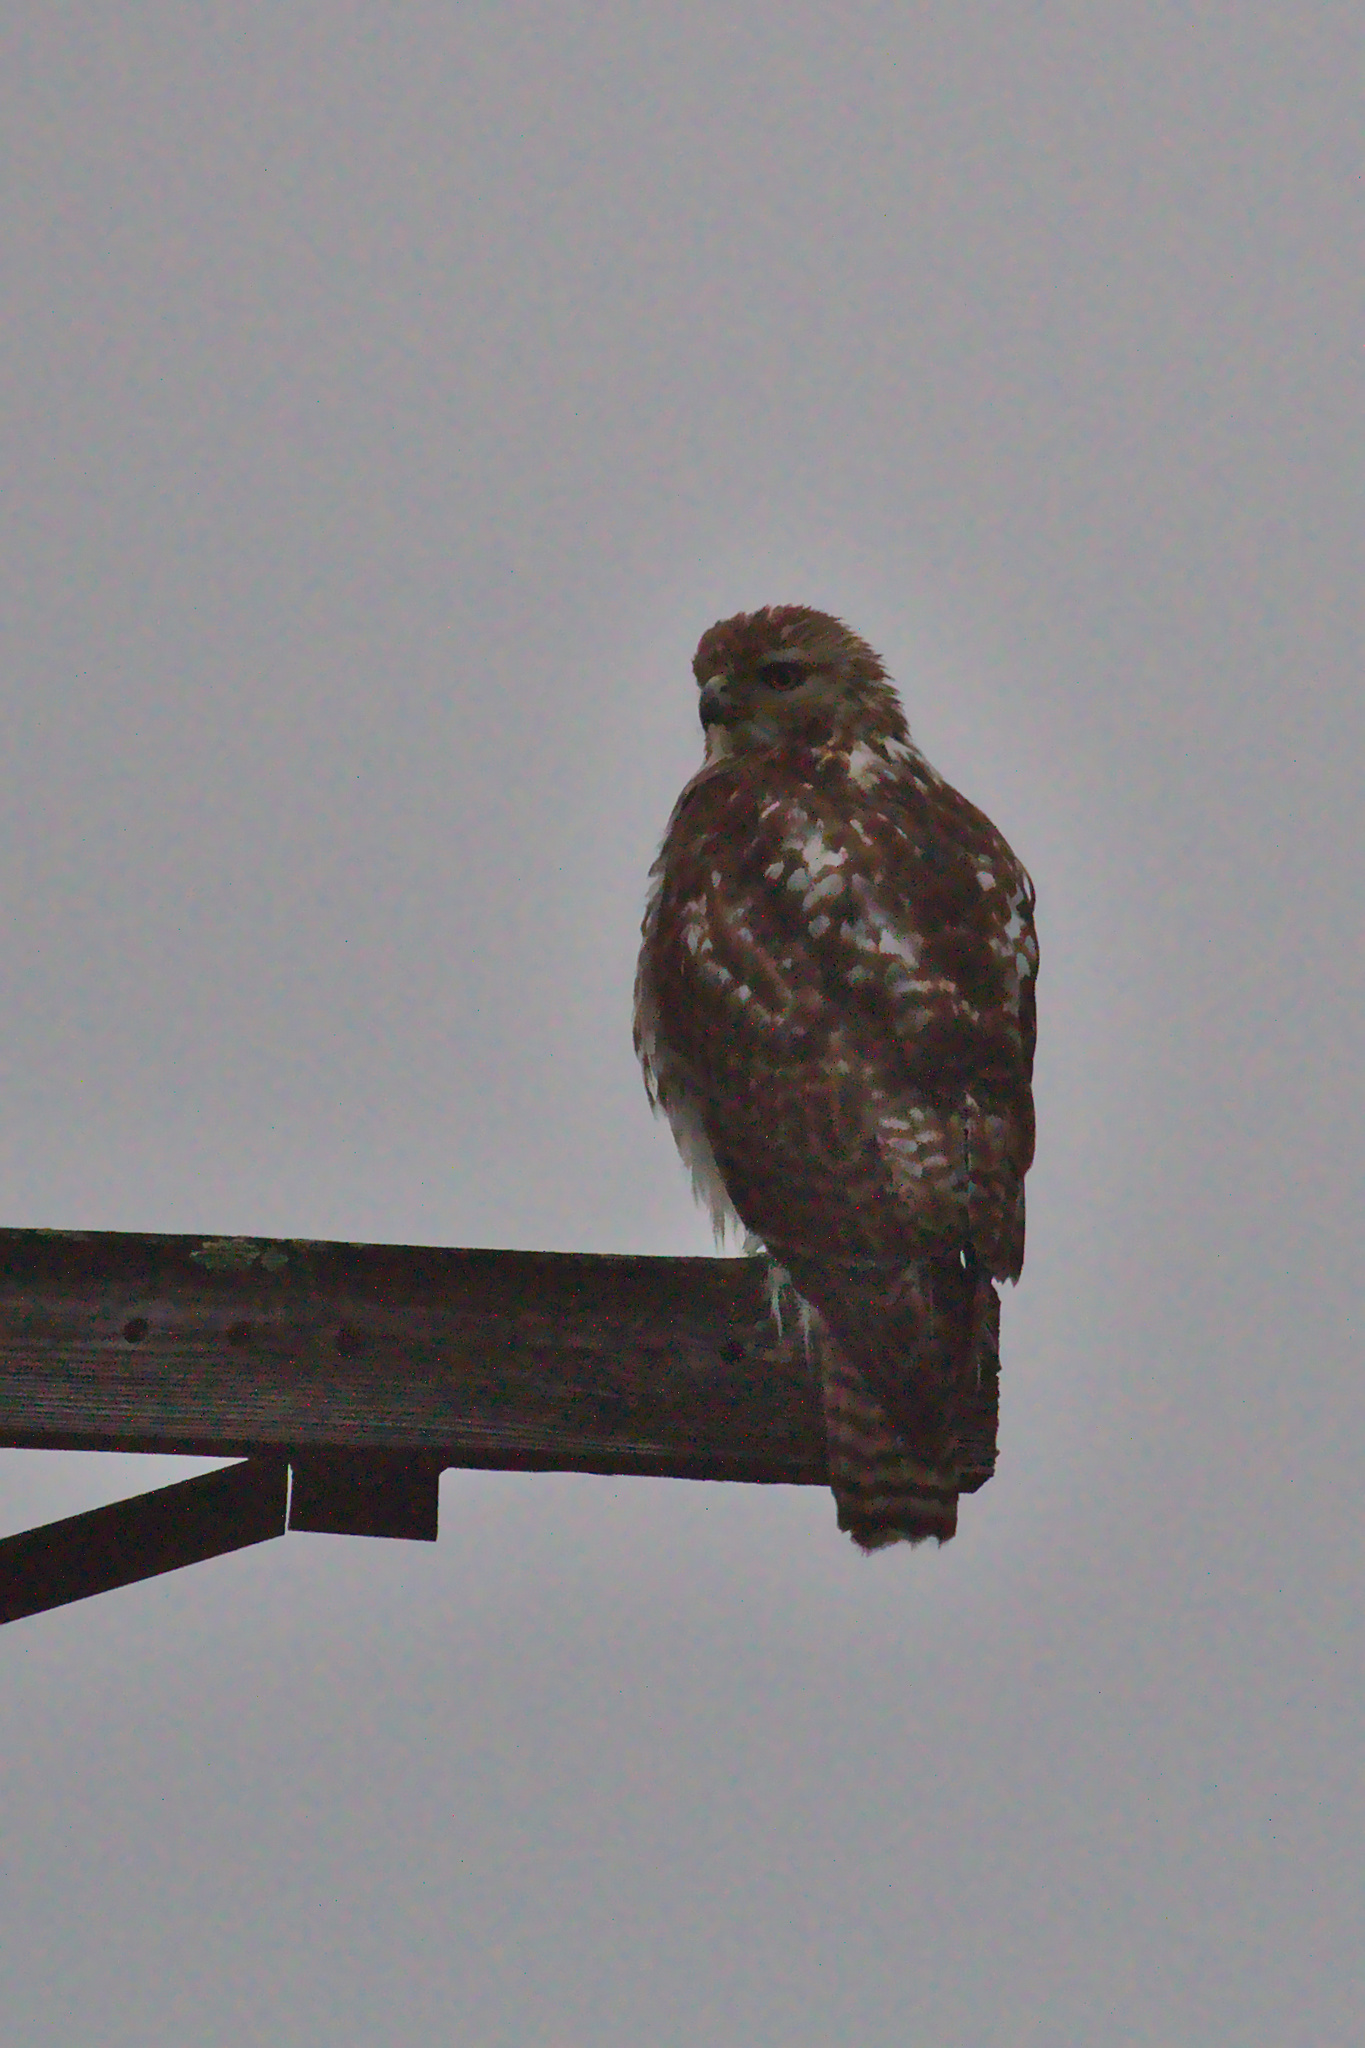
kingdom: Animalia
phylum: Chordata
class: Aves
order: Accipitriformes
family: Accipitridae
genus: Buteo
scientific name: Buteo jamaicensis
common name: Red-tailed hawk
